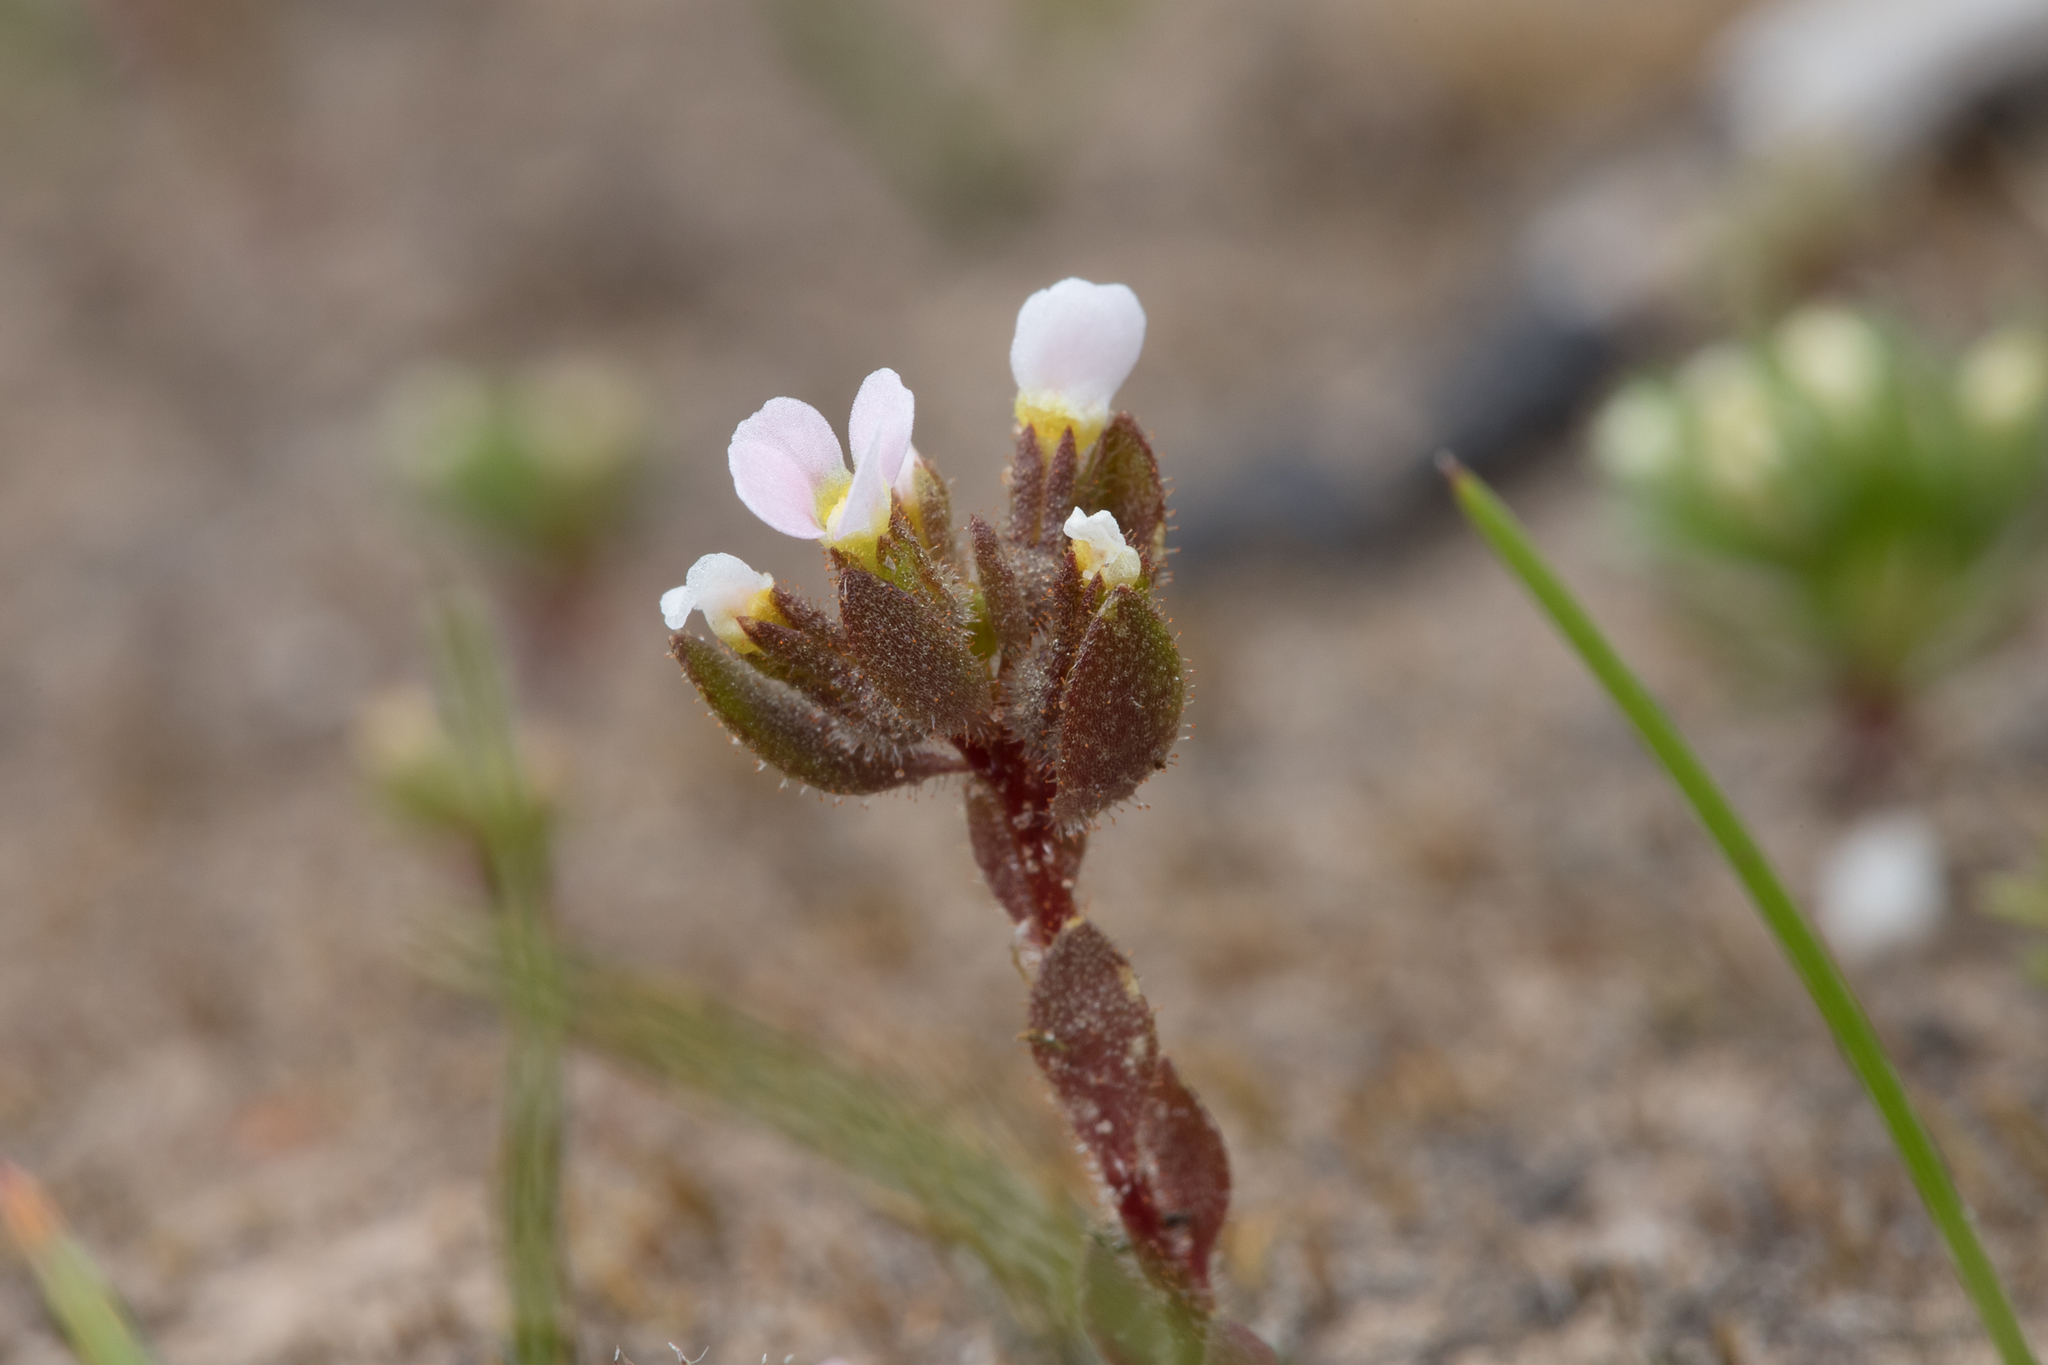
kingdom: Plantae
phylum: Tracheophyta
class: Magnoliopsida
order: Asterales
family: Stylidiaceae
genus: Levenhookia
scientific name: Levenhookia dubia
